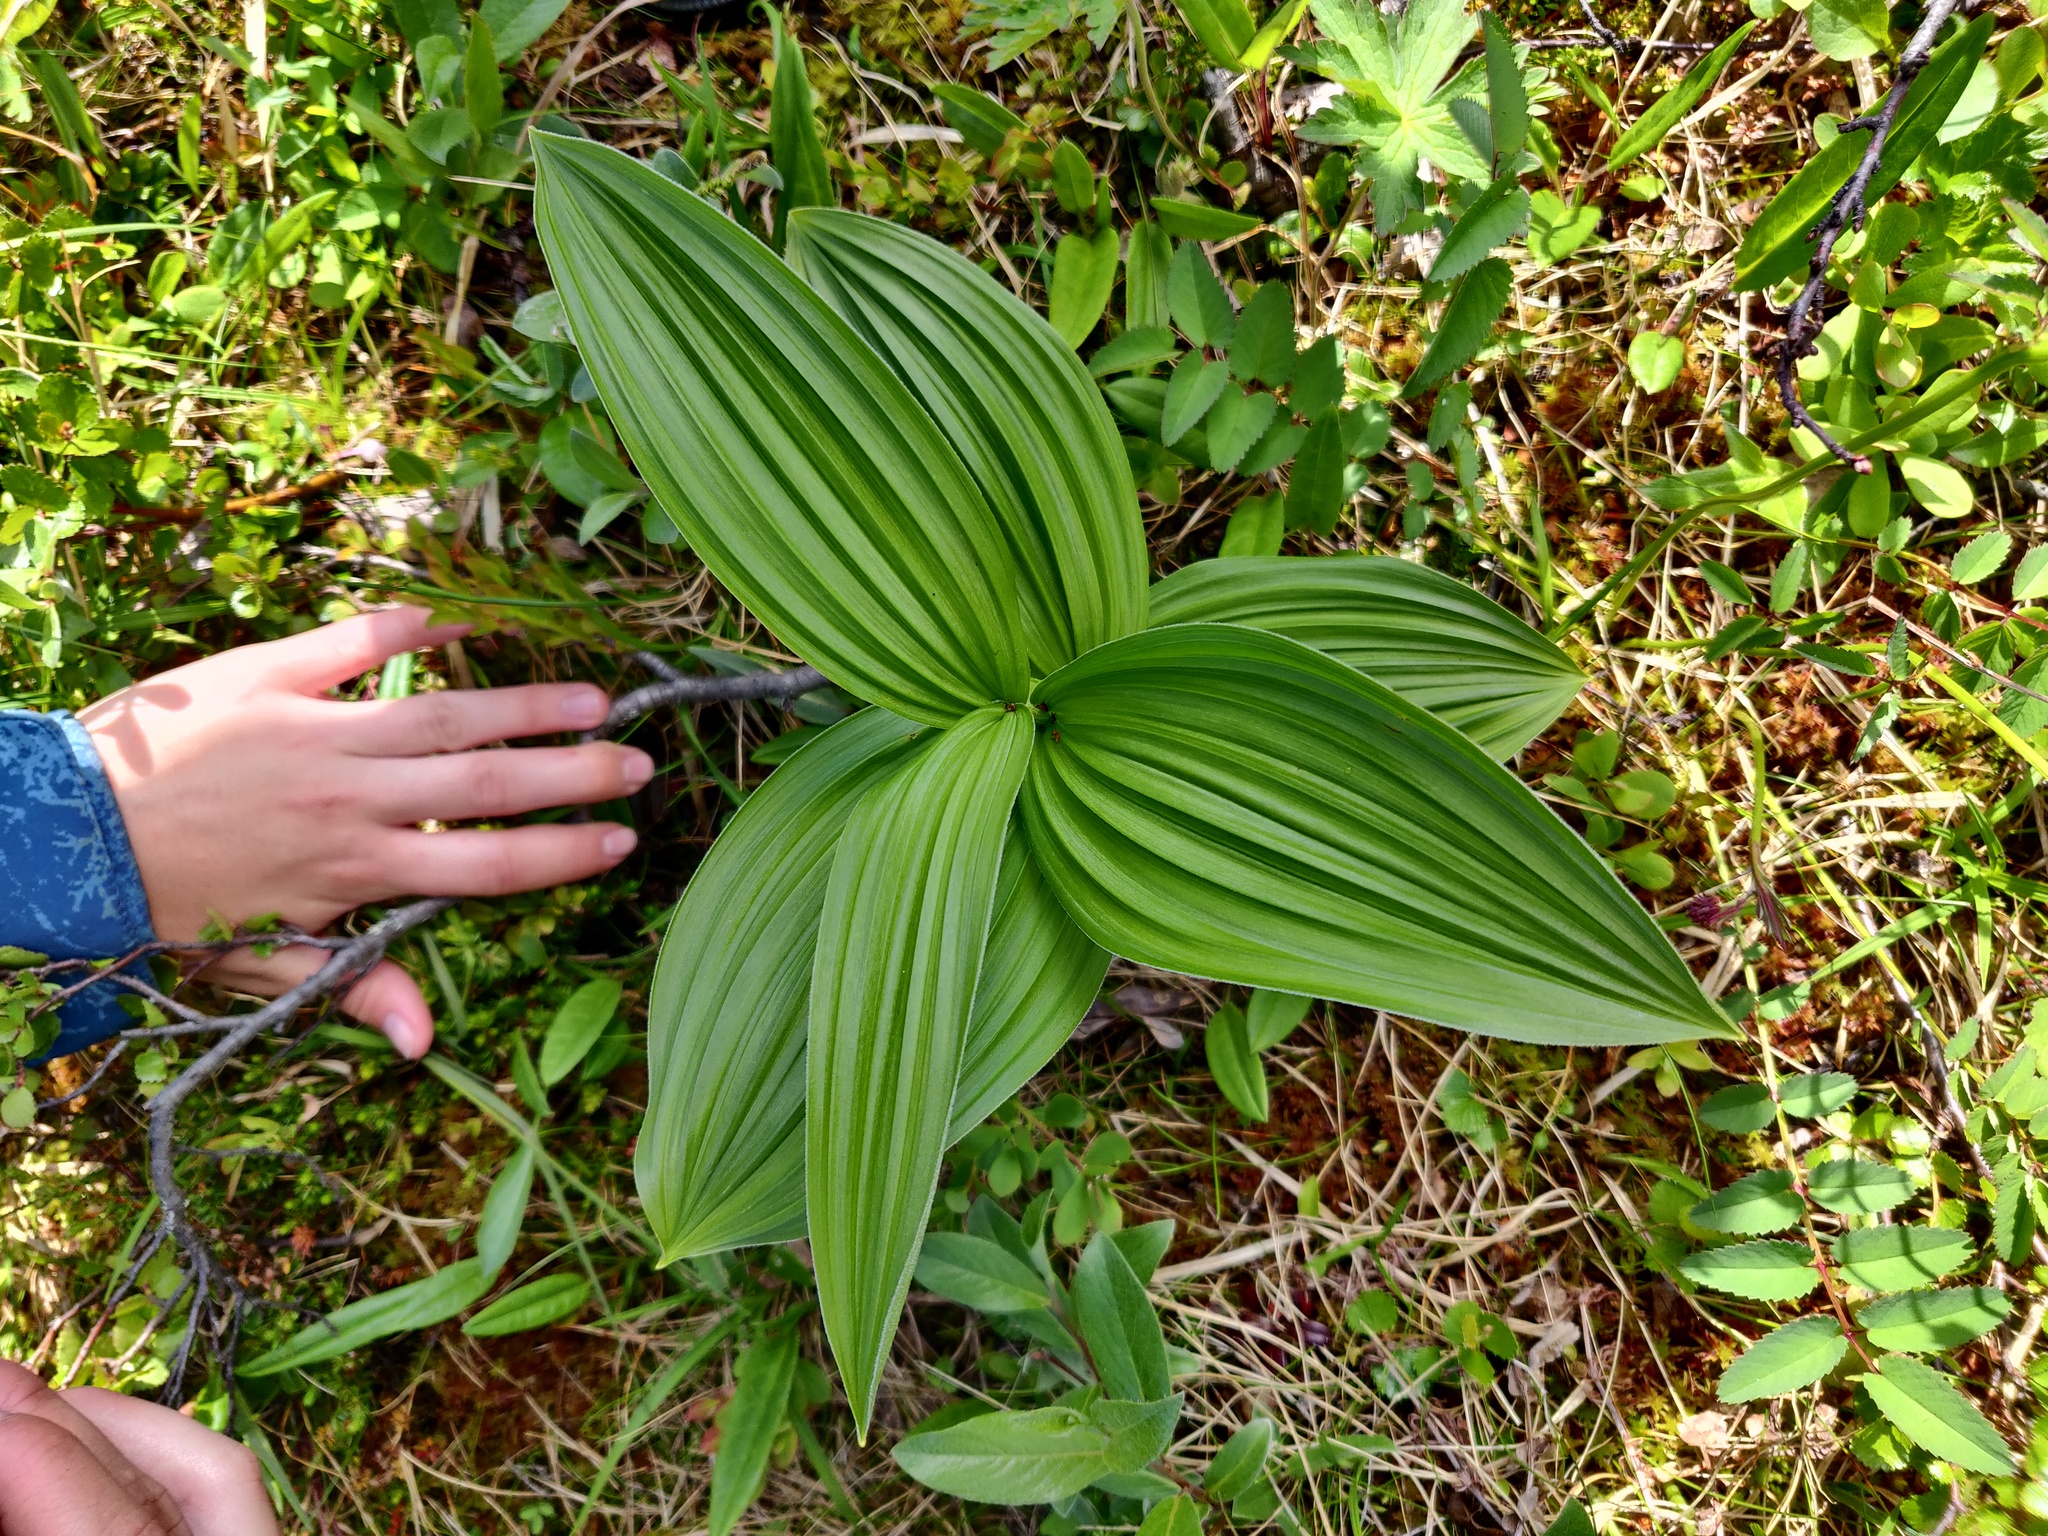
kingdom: Plantae
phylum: Tracheophyta
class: Liliopsida
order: Liliales
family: Melanthiaceae
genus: Veratrum
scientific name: Veratrum lobelianum
